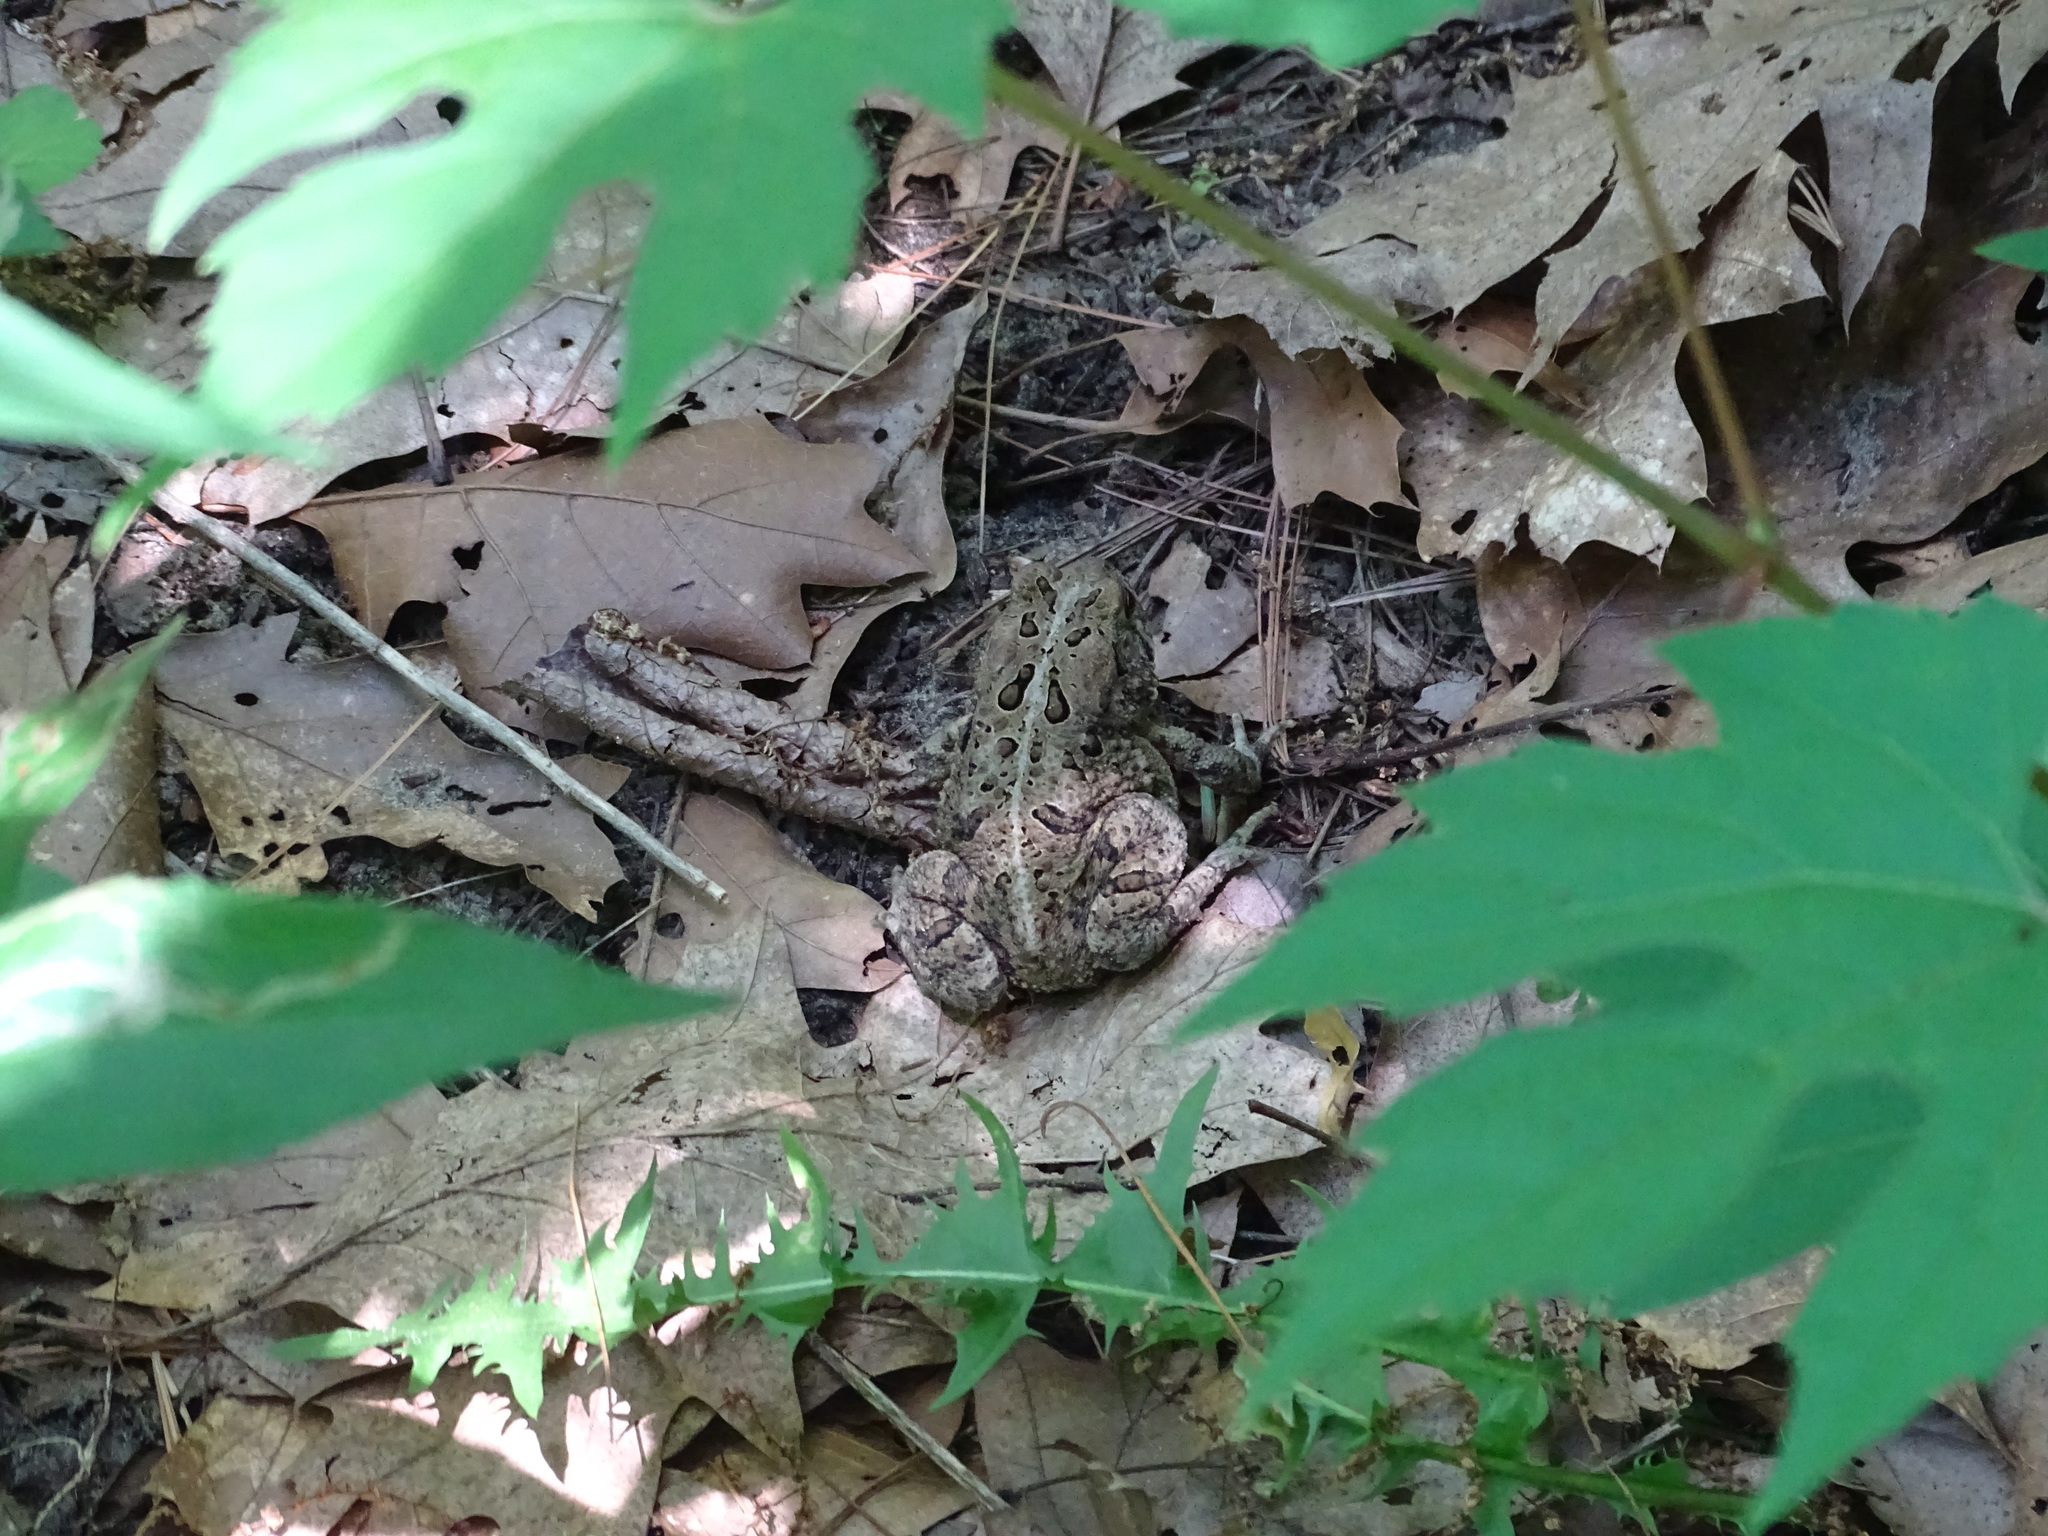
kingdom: Animalia
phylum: Chordata
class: Amphibia
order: Anura
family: Bufonidae
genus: Anaxyrus
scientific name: Anaxyrus americanus
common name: American toad
